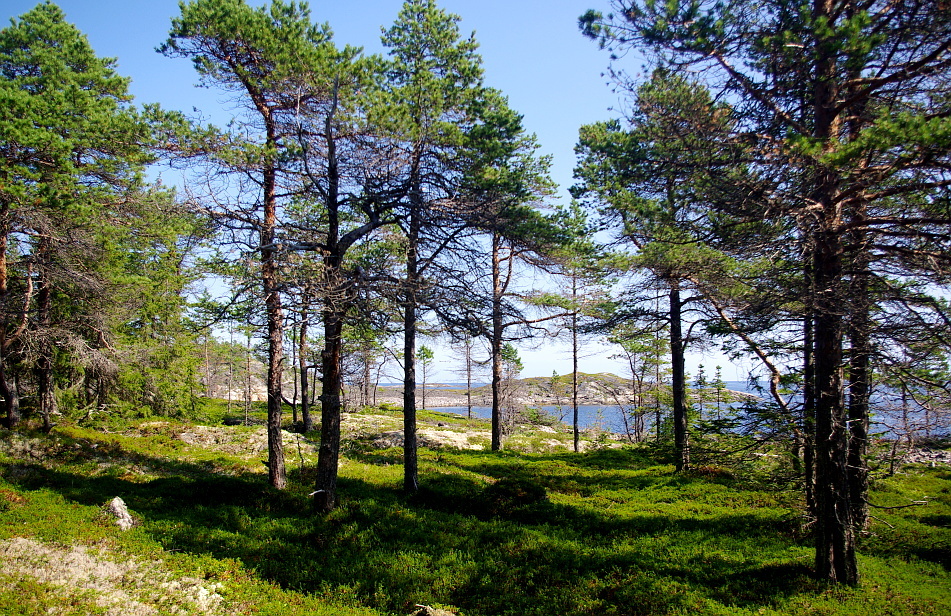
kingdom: Plantae
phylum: Tracheophyta
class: Pinopsida
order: Pinales
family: Pinaceae
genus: Pinus
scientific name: Pinus sylvestris
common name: Scots pine
